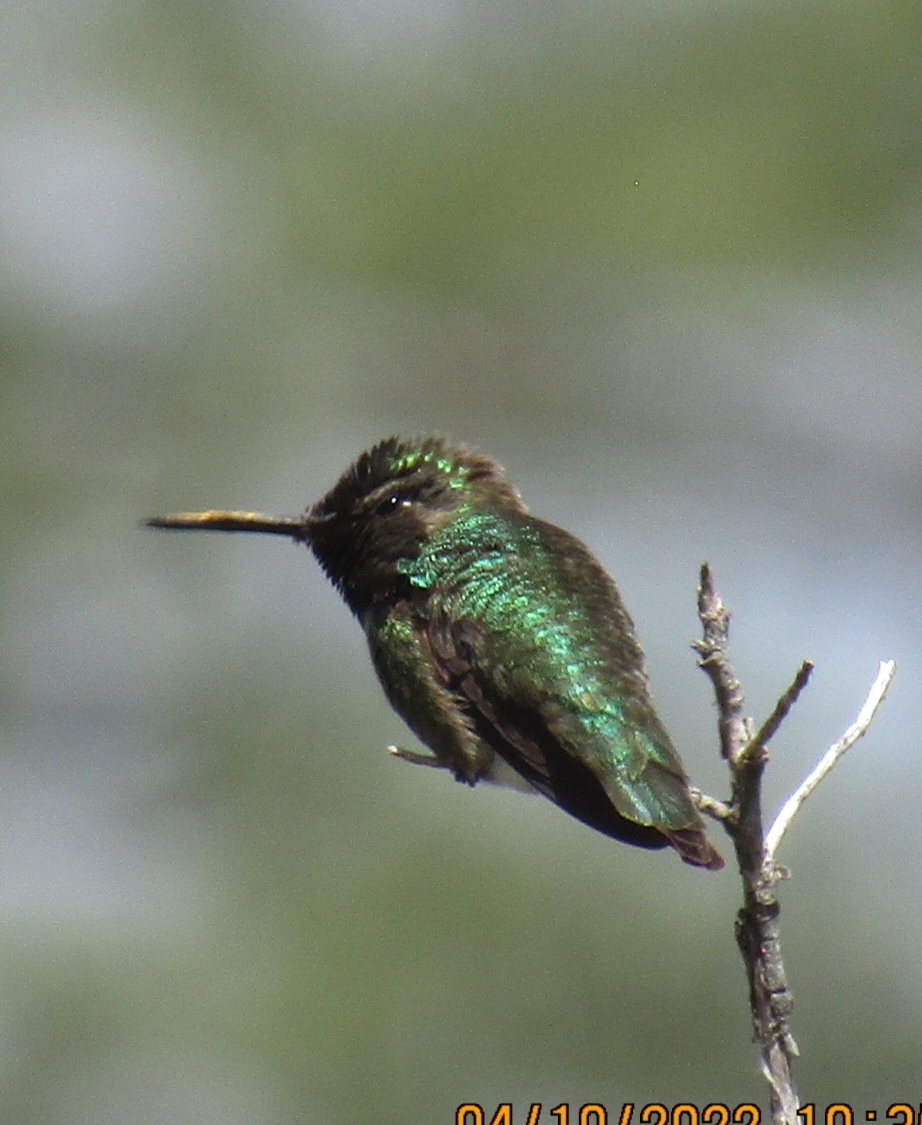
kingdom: Animalia
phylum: Chordata
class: Aves
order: Apodiformes
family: Trochilidae
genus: Calypte
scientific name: Calypte anna
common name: Anna's hummingbird
